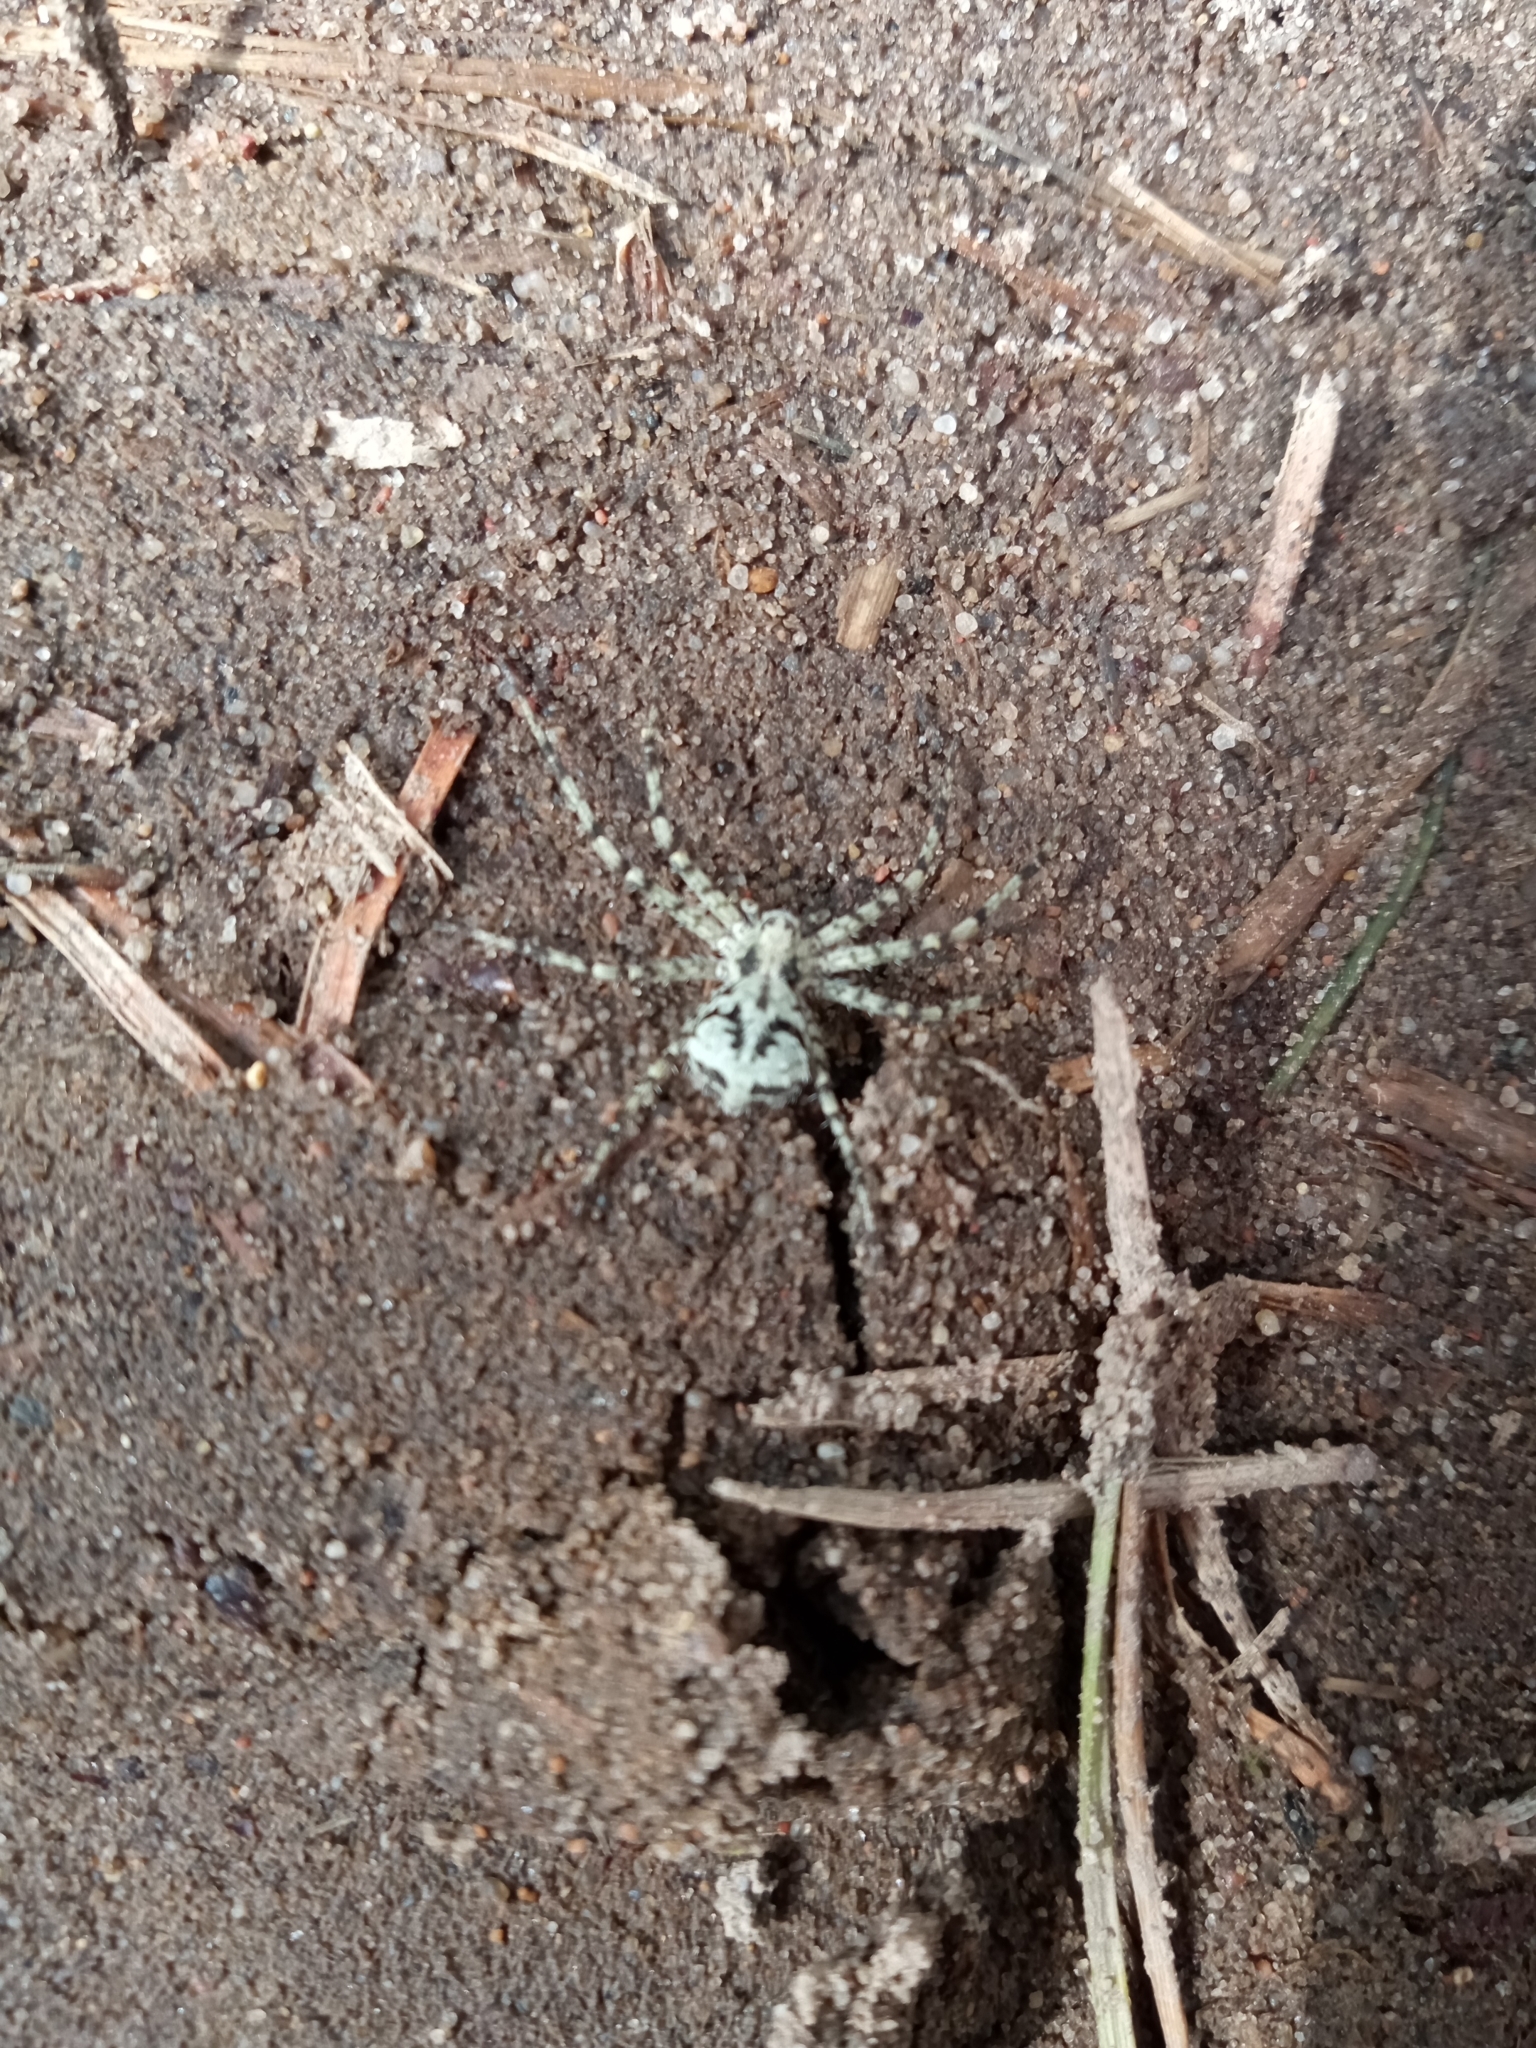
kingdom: Animalia
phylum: Arthropoda
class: Arachnida
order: Araneae
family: Philodromidae
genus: Philodromus
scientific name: Philodromus margaritatus
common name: Lichen running-spider
